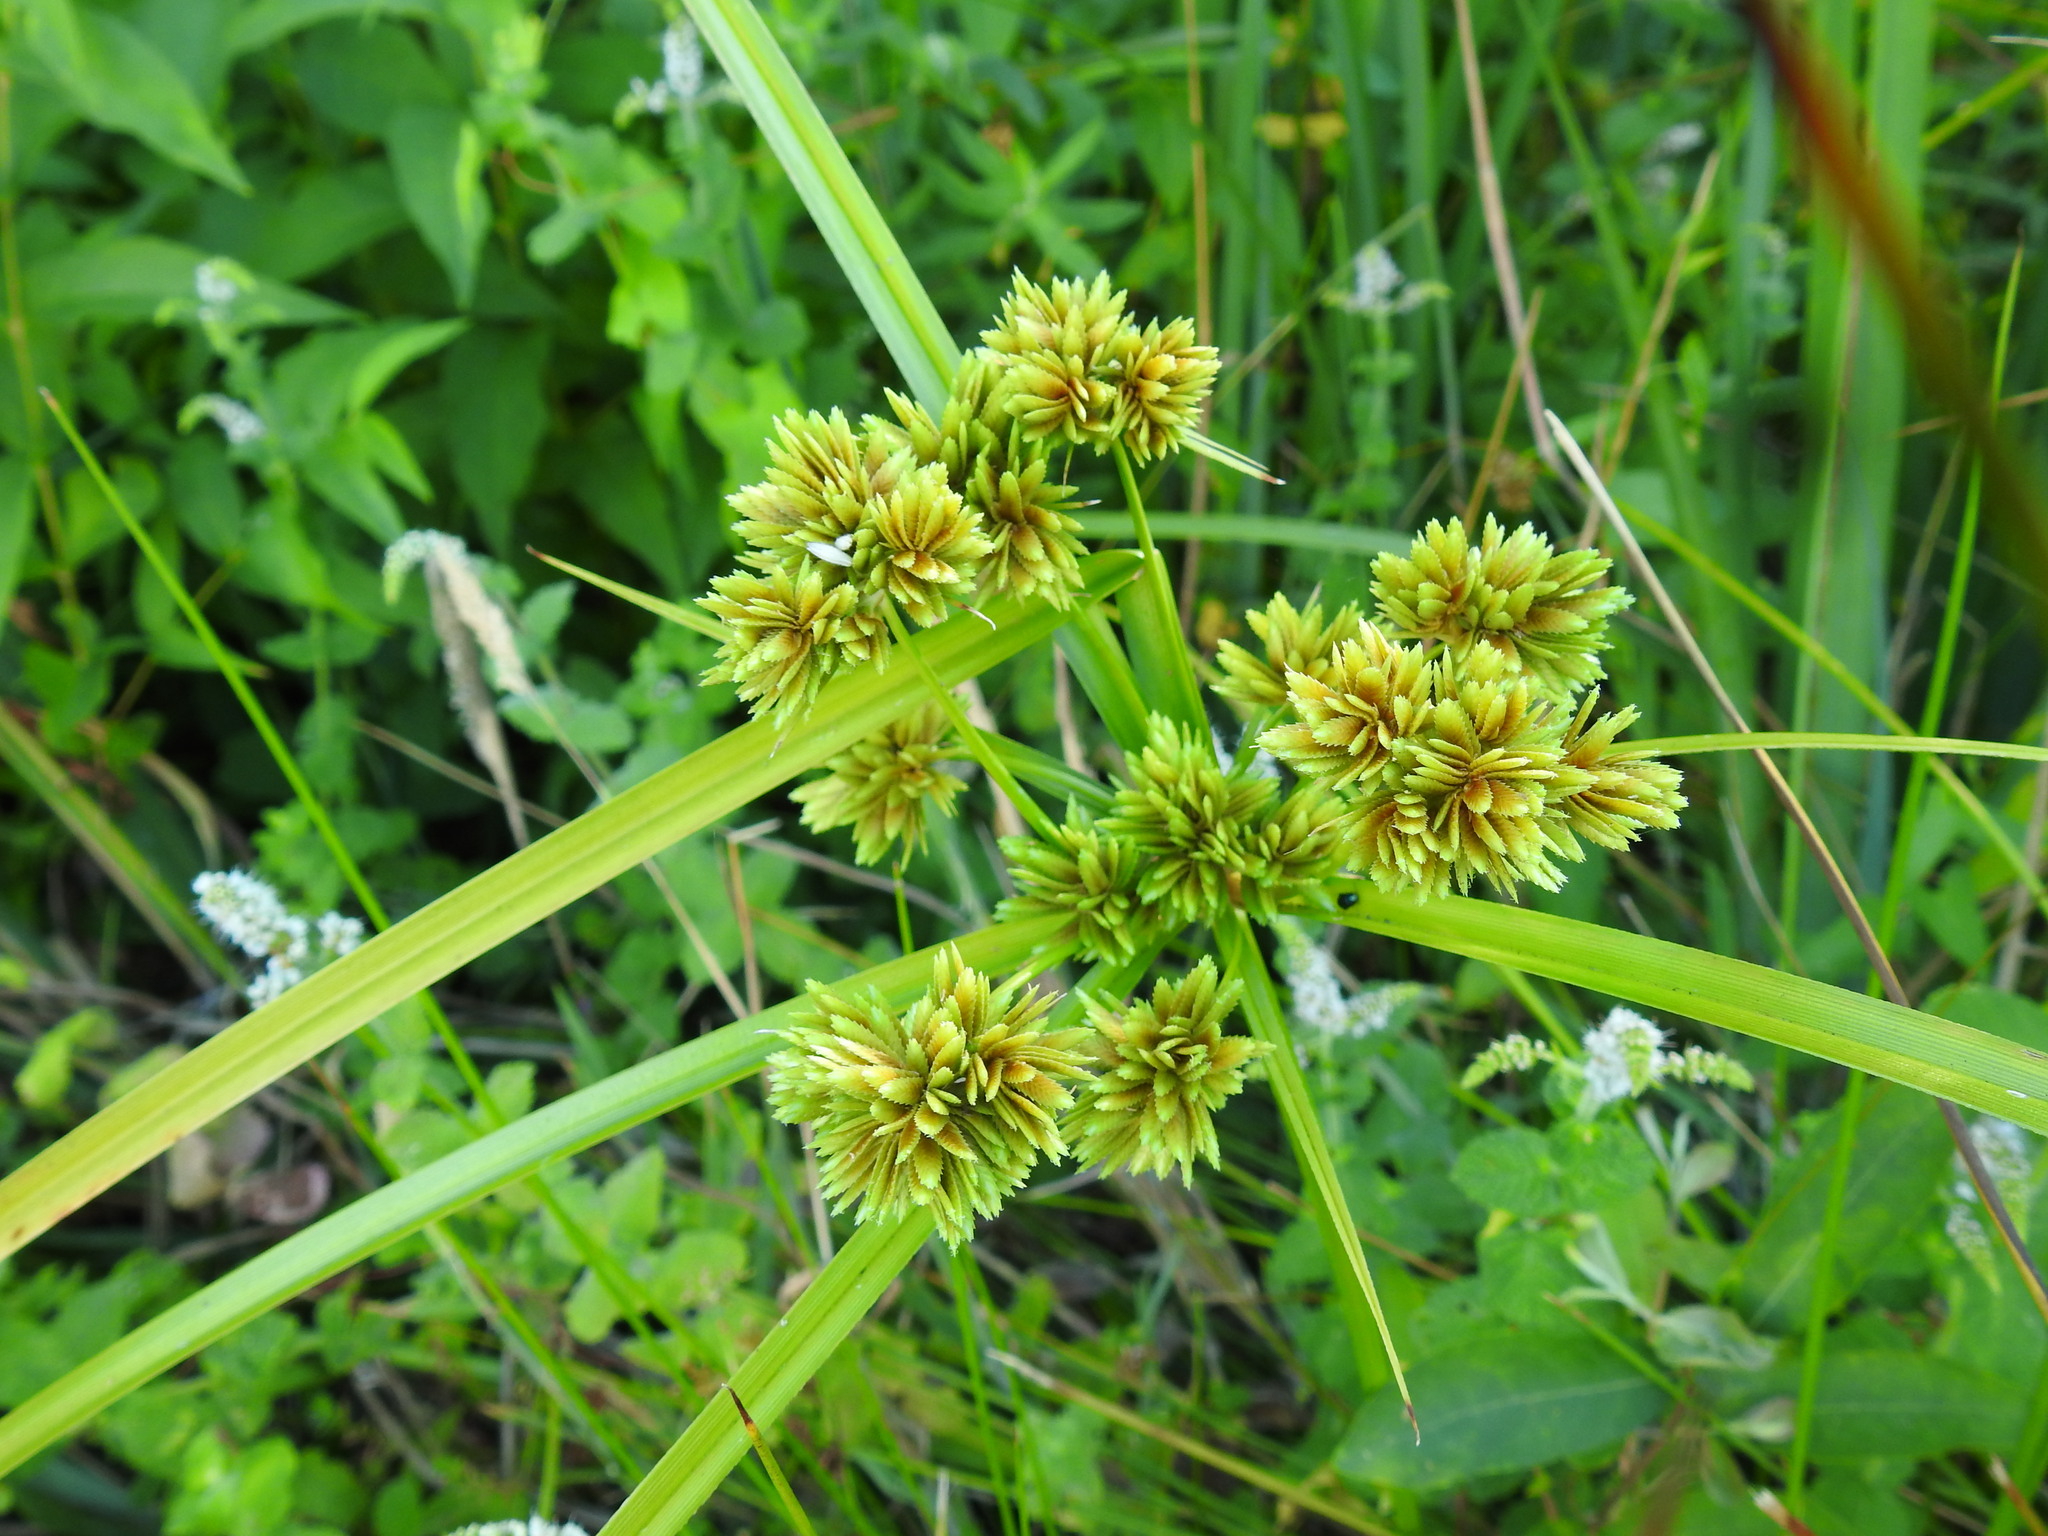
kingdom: Plantae
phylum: Tracheophyta
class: Liliopsida
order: Poales
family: Cyperaceae
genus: Cyperus
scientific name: Cyperus eragrostis
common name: Tall flatsedge
